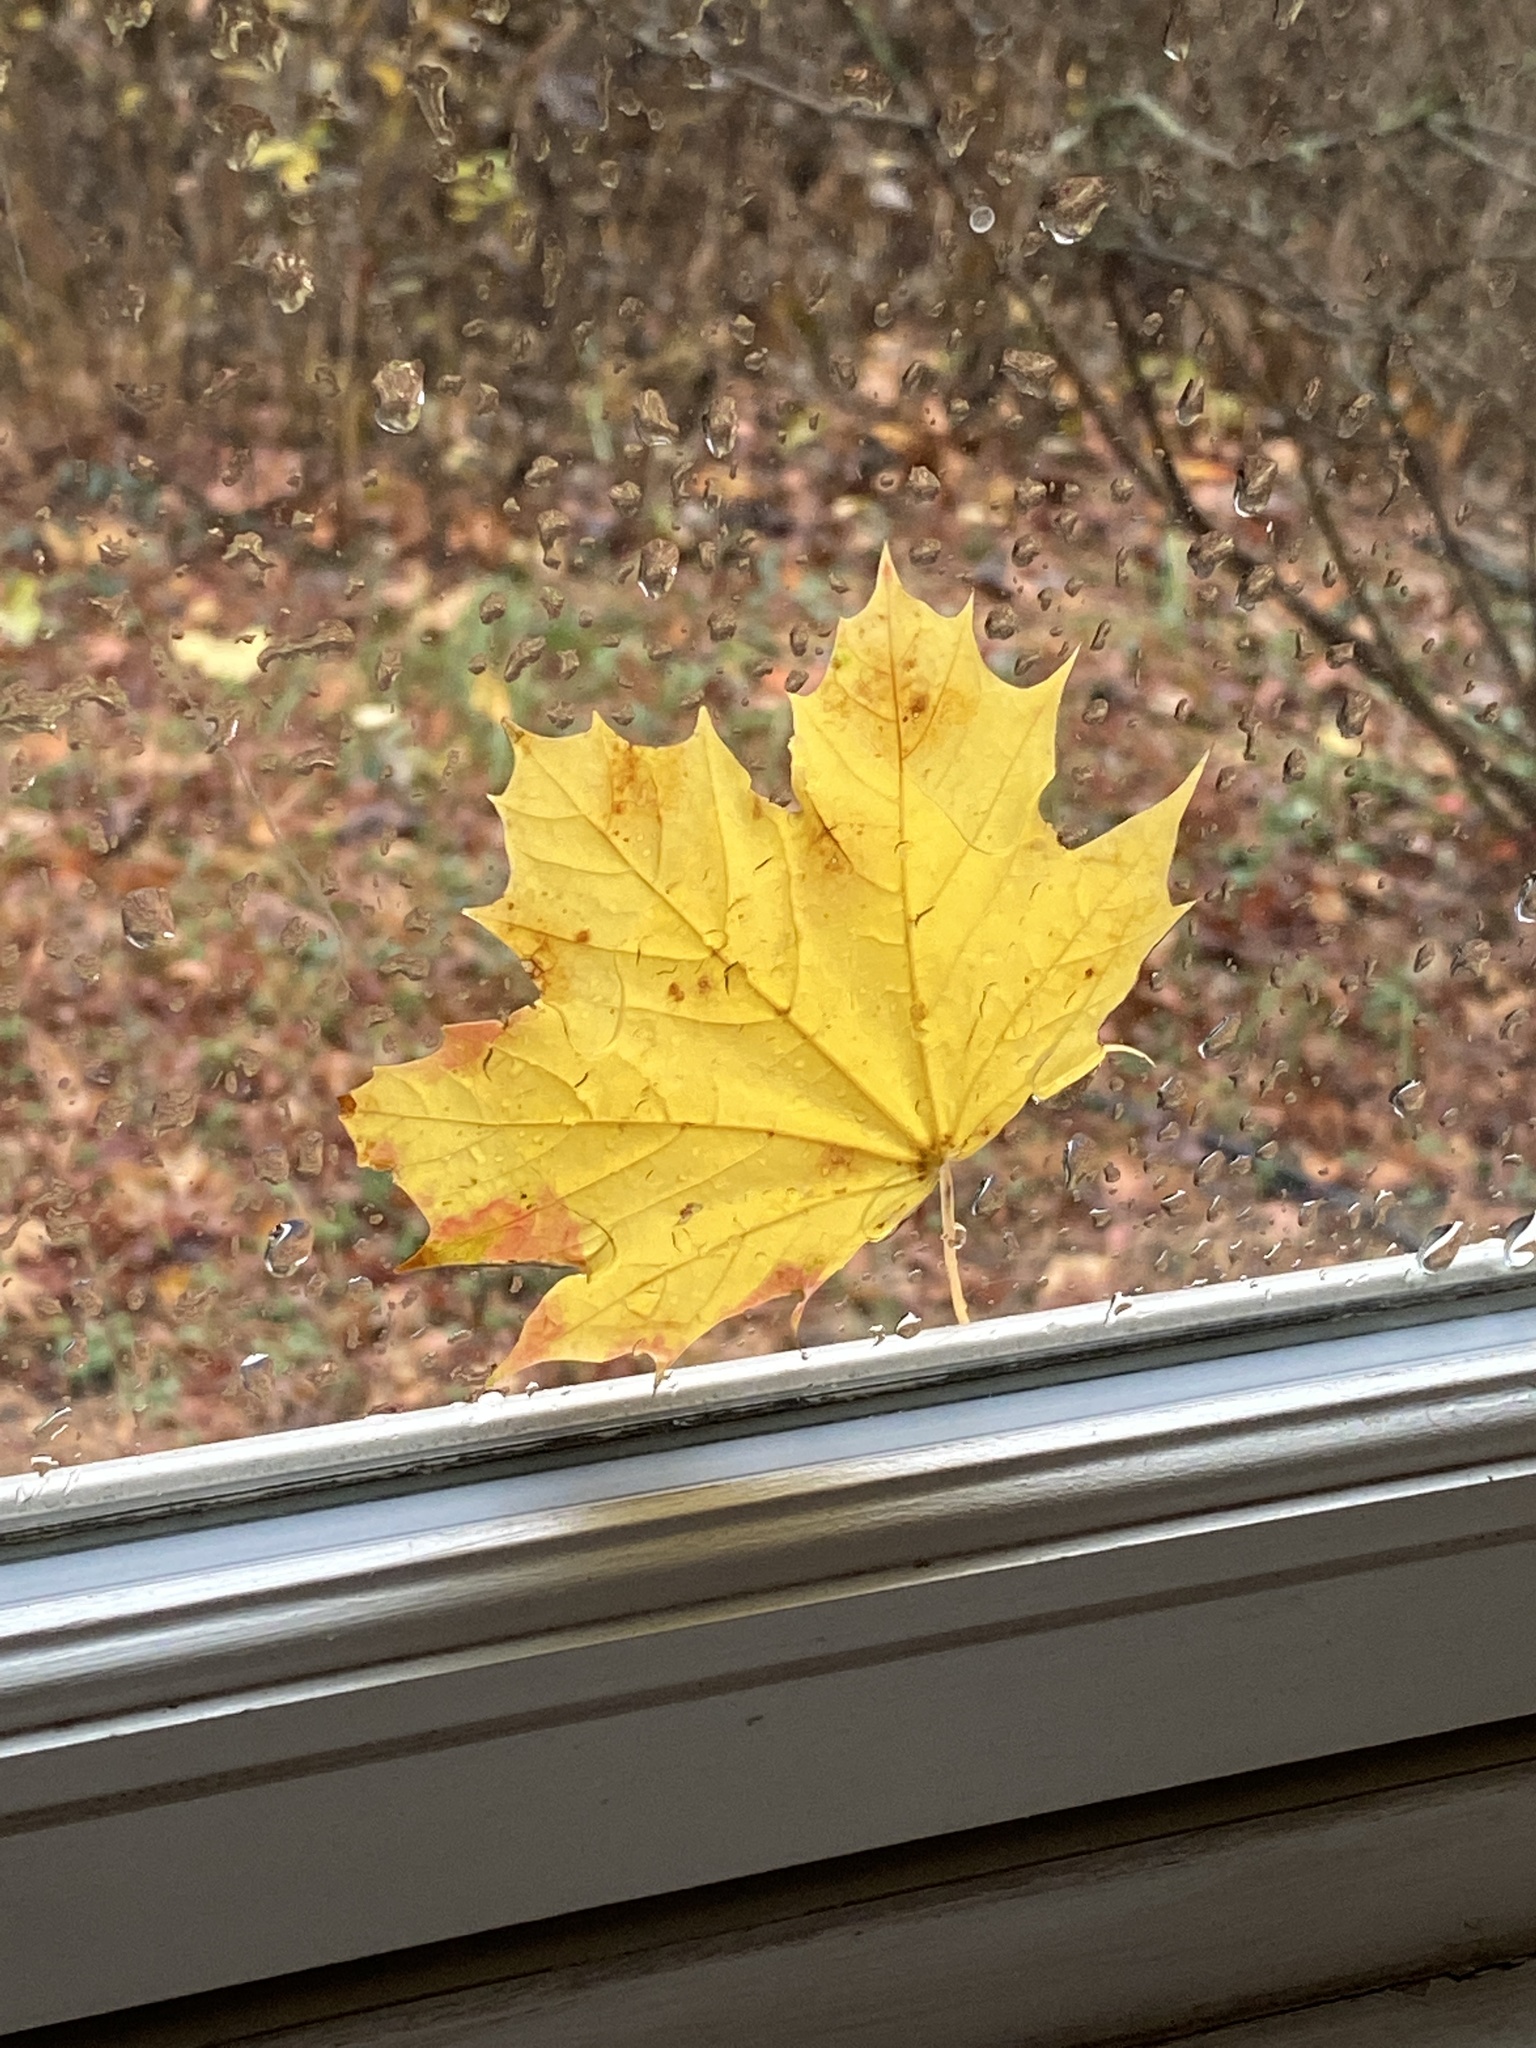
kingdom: Plantae
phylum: Tracheophyta
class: Magnoliopsida
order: Sapindales
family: Sapindaceae
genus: Acer
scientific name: Acer platanoides
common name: Norway maple
